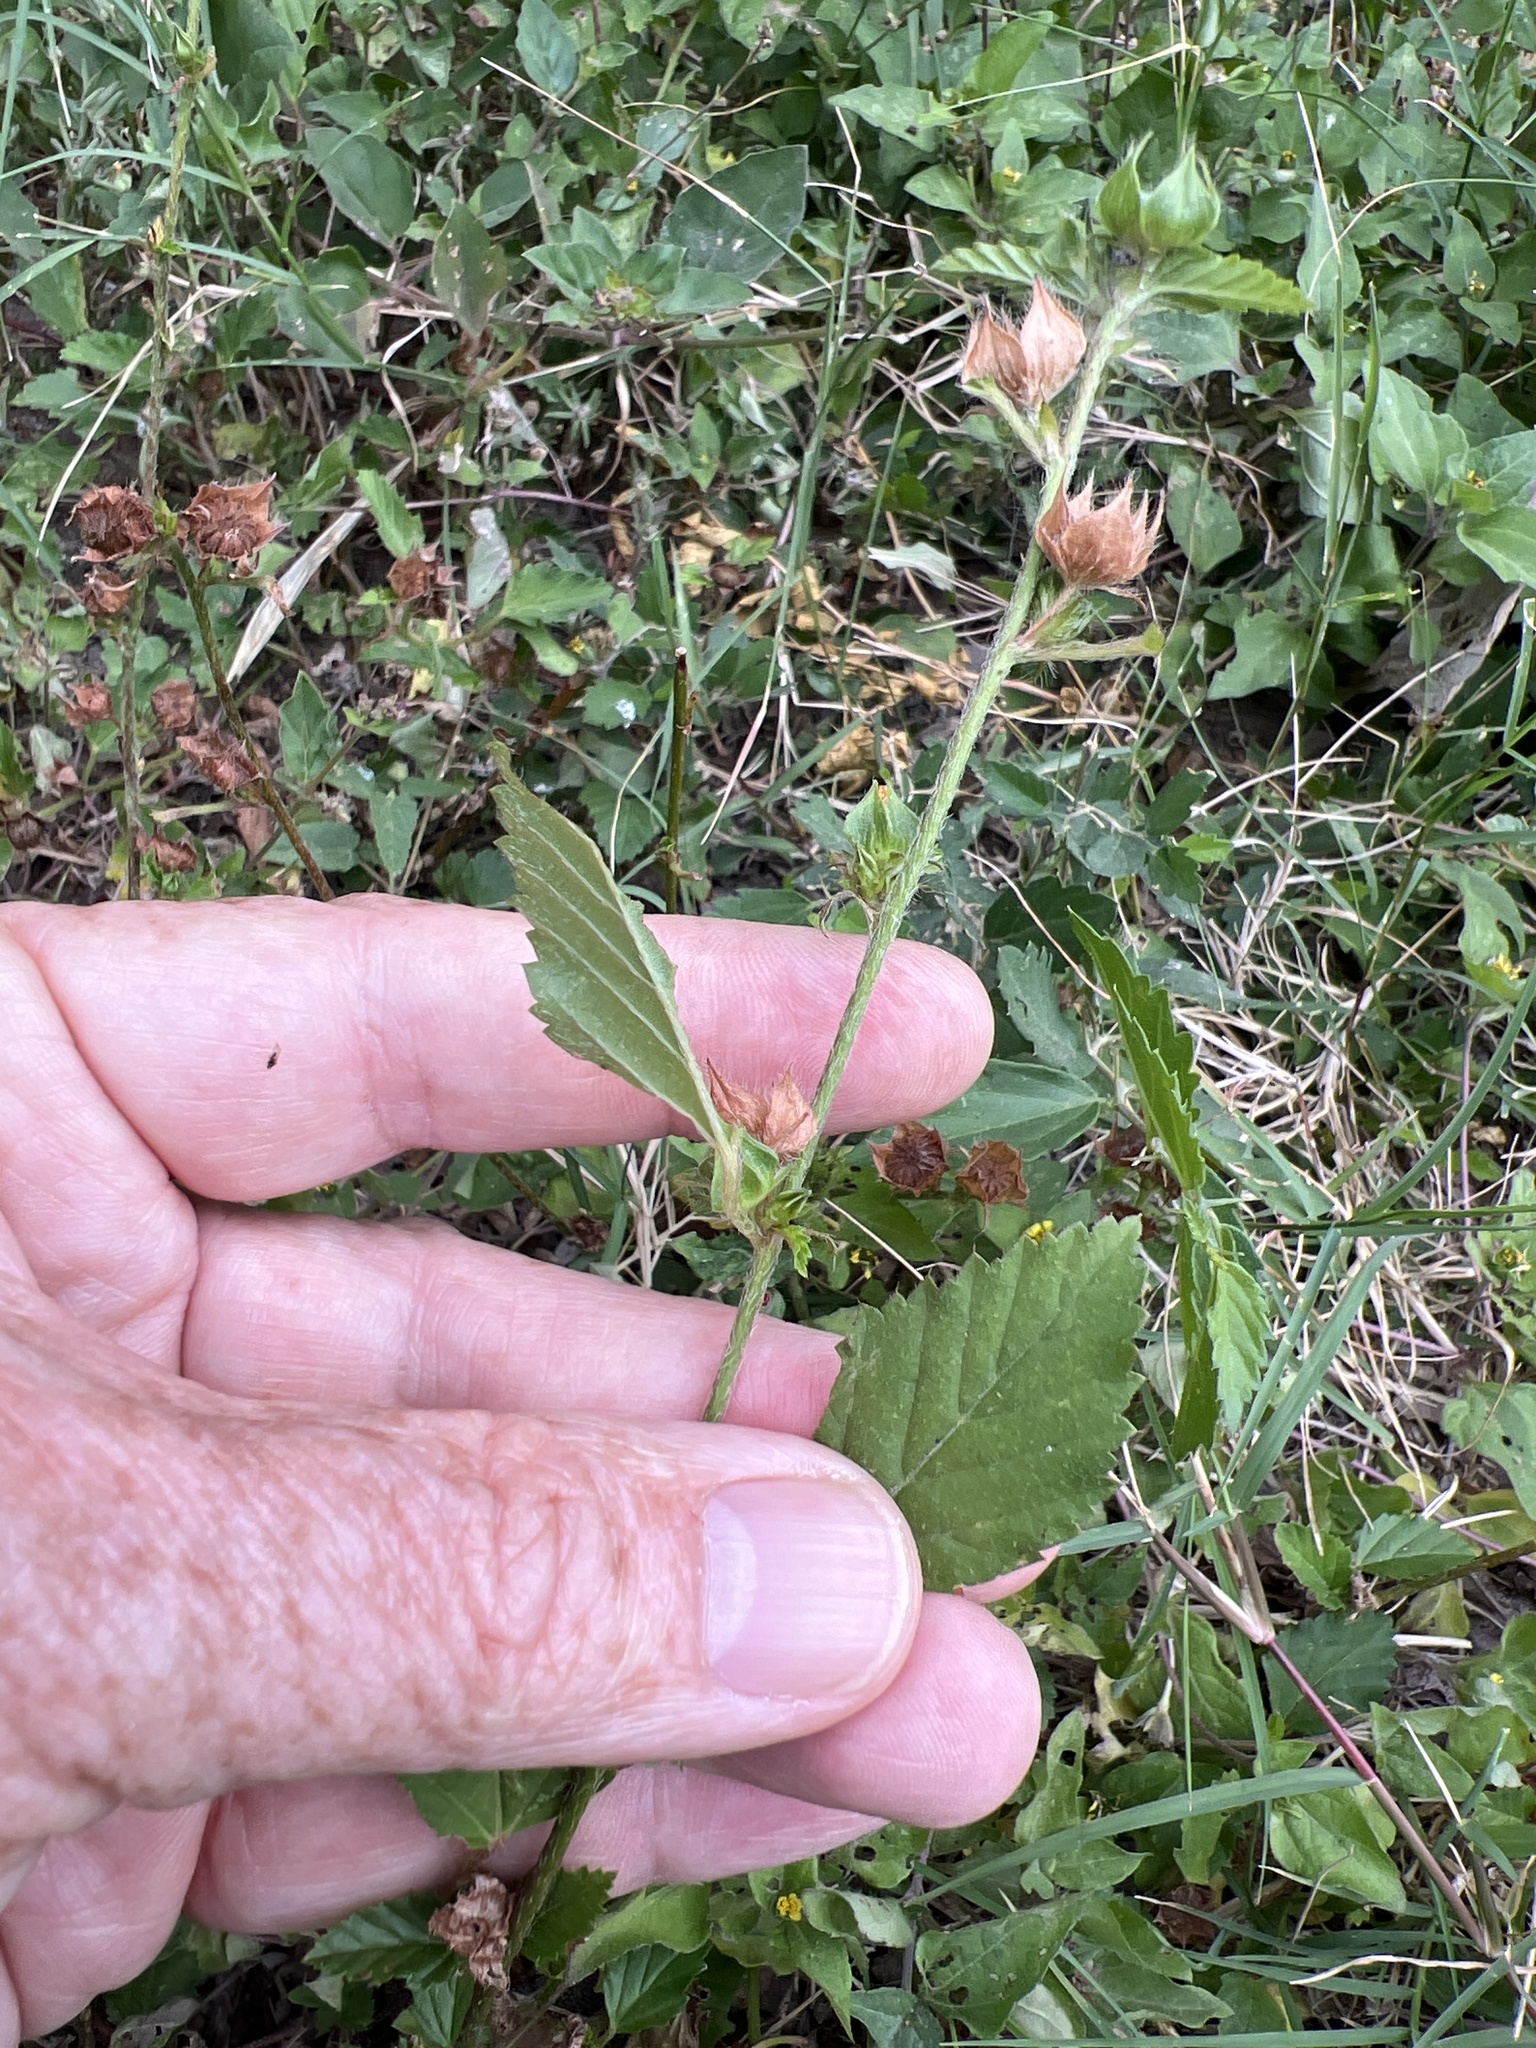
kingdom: Plantae
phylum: Tracheophyta
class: Magnoliopsida
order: Malvales
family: Malvaceae
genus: Malvastrum
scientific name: Malvastrum coromandelianum
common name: Threelobe false mallow
